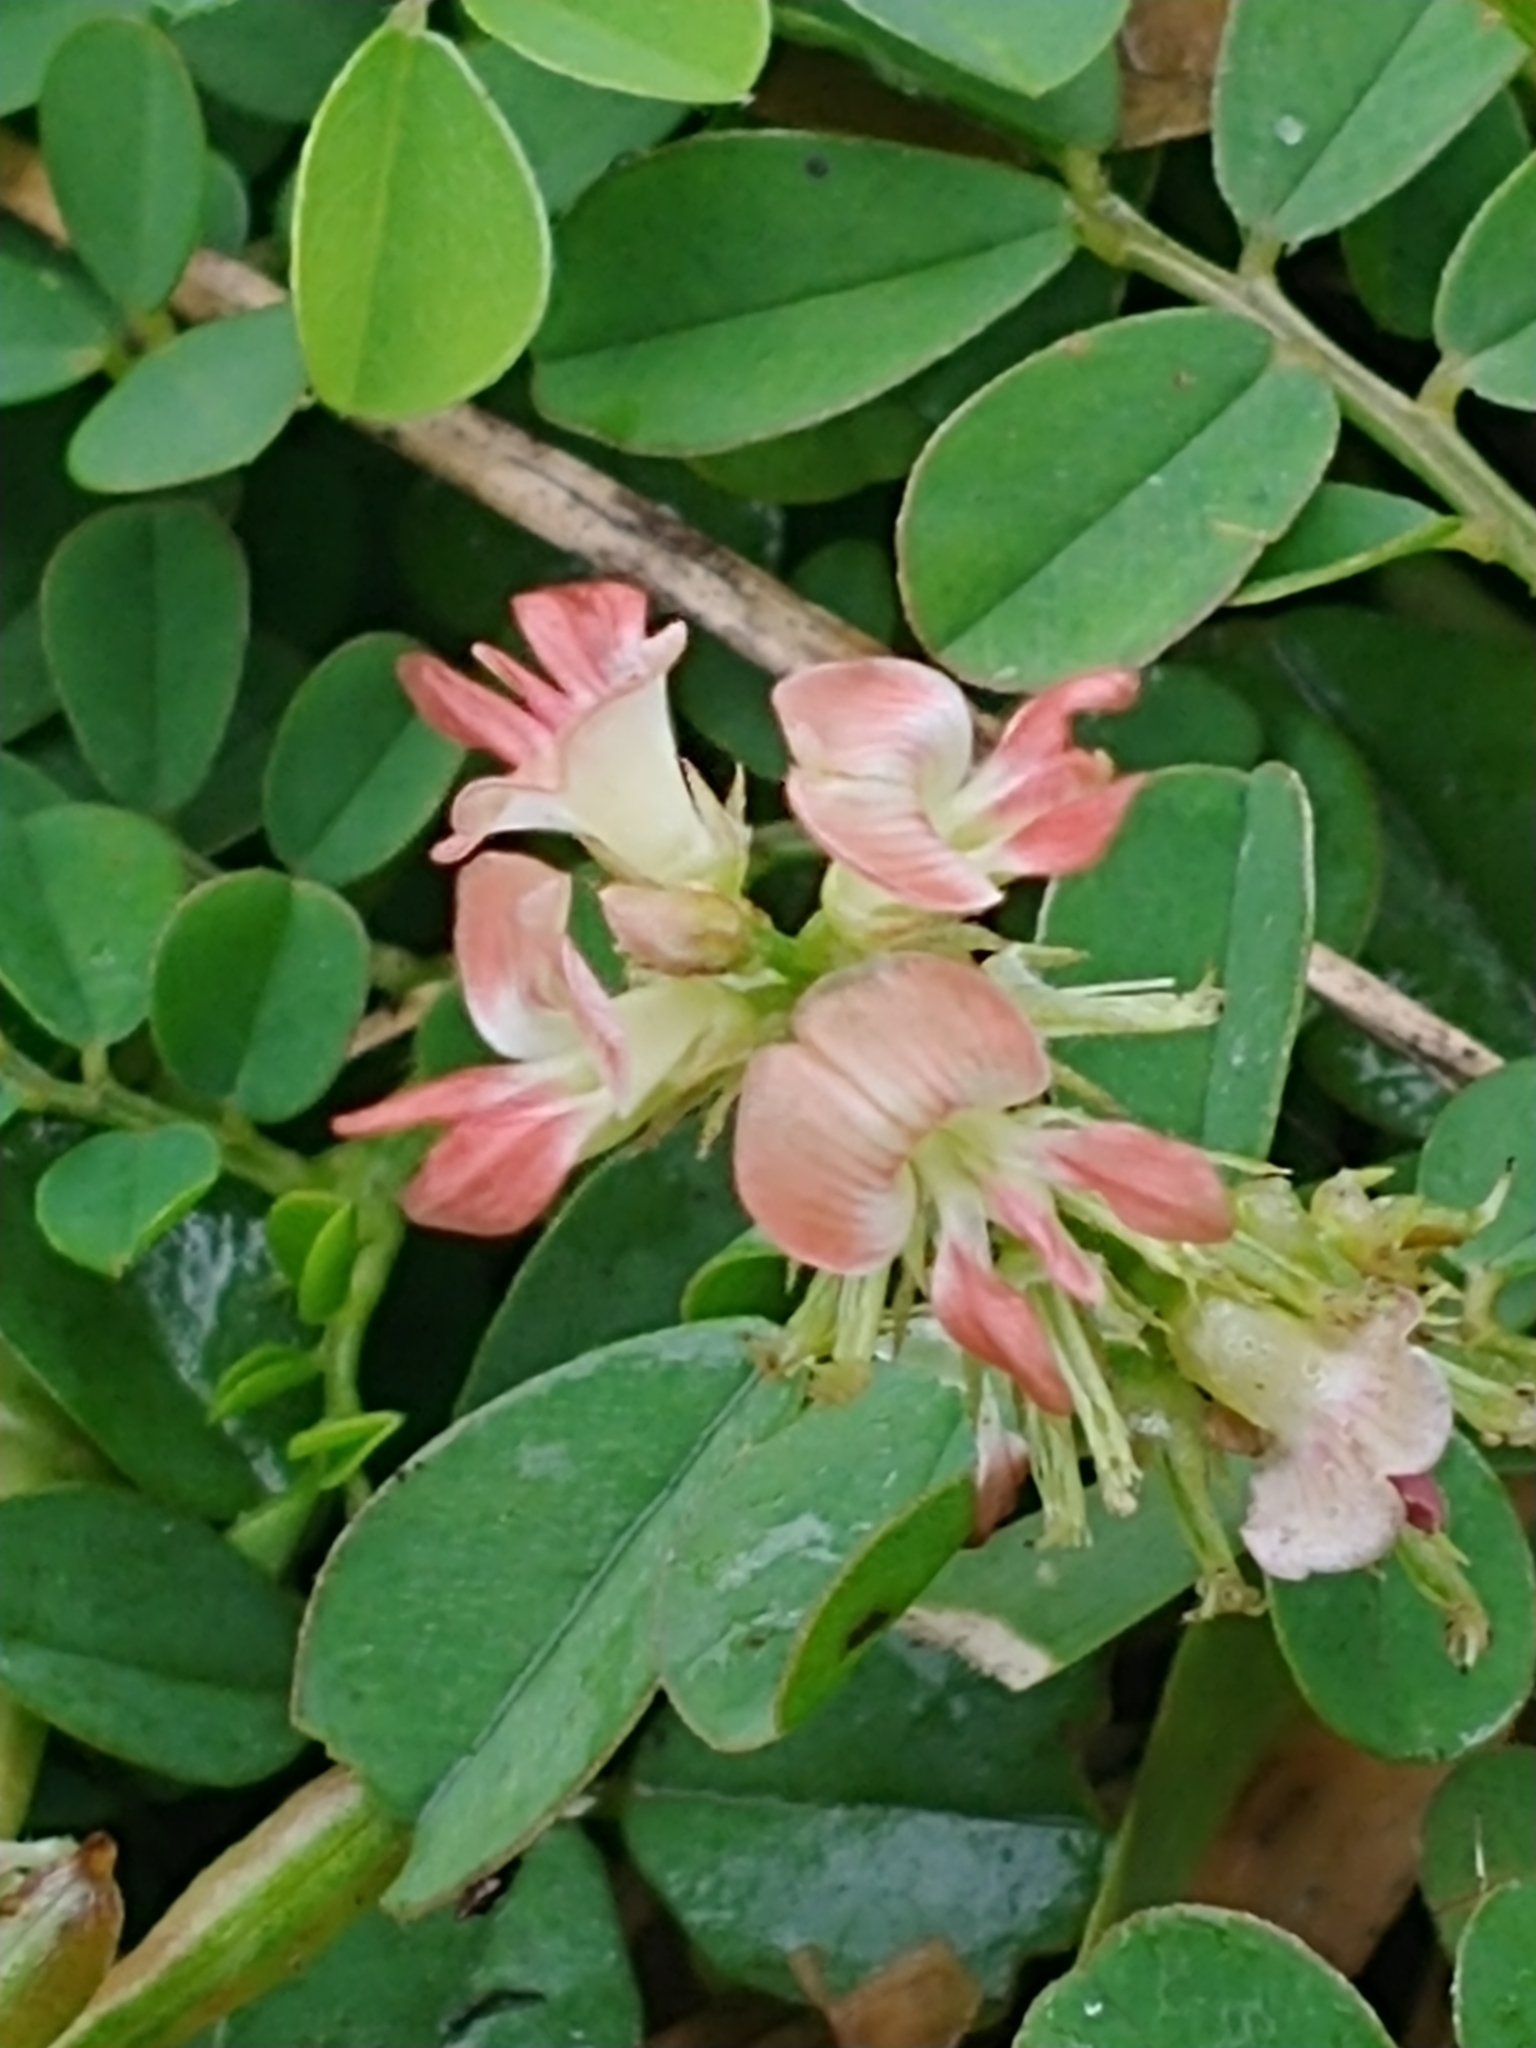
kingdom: Plantae
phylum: Tracheophyta
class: Magnoliopsida
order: Fabales
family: Fabaceae
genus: Indigofera
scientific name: Indigofera spicata
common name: Creeping indigo
